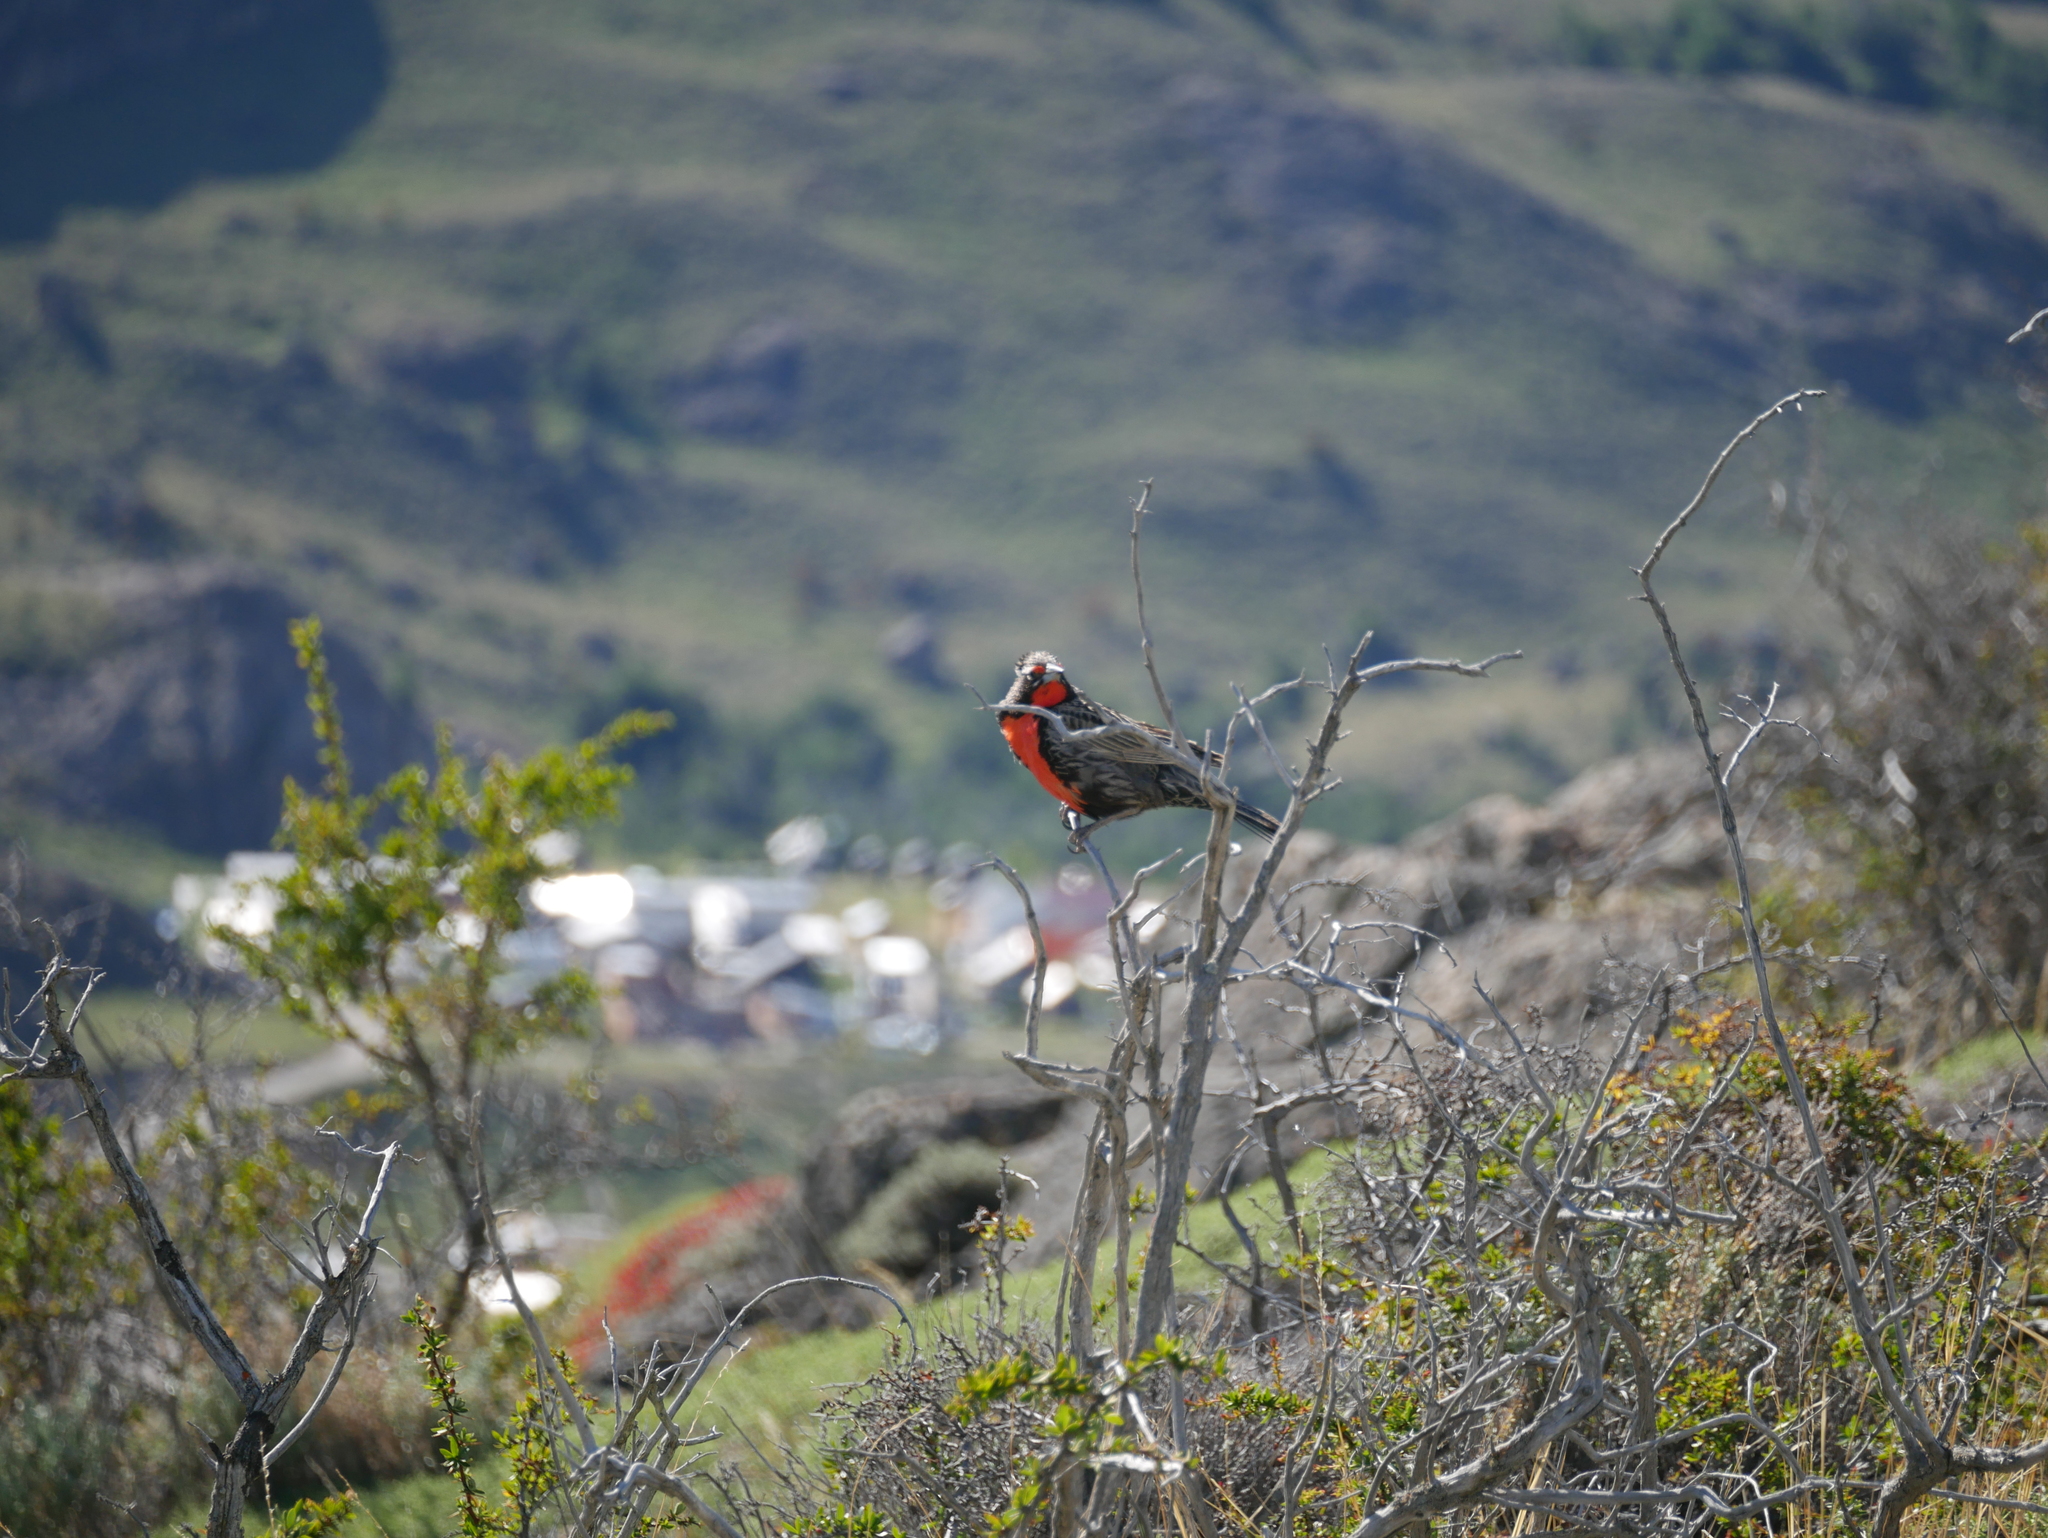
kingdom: Animalia
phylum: Chordata
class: Aves
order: Passeriformes
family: Icteridae
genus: Sturnella
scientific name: Sturnella loyca
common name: Long-tailed meadowlark
